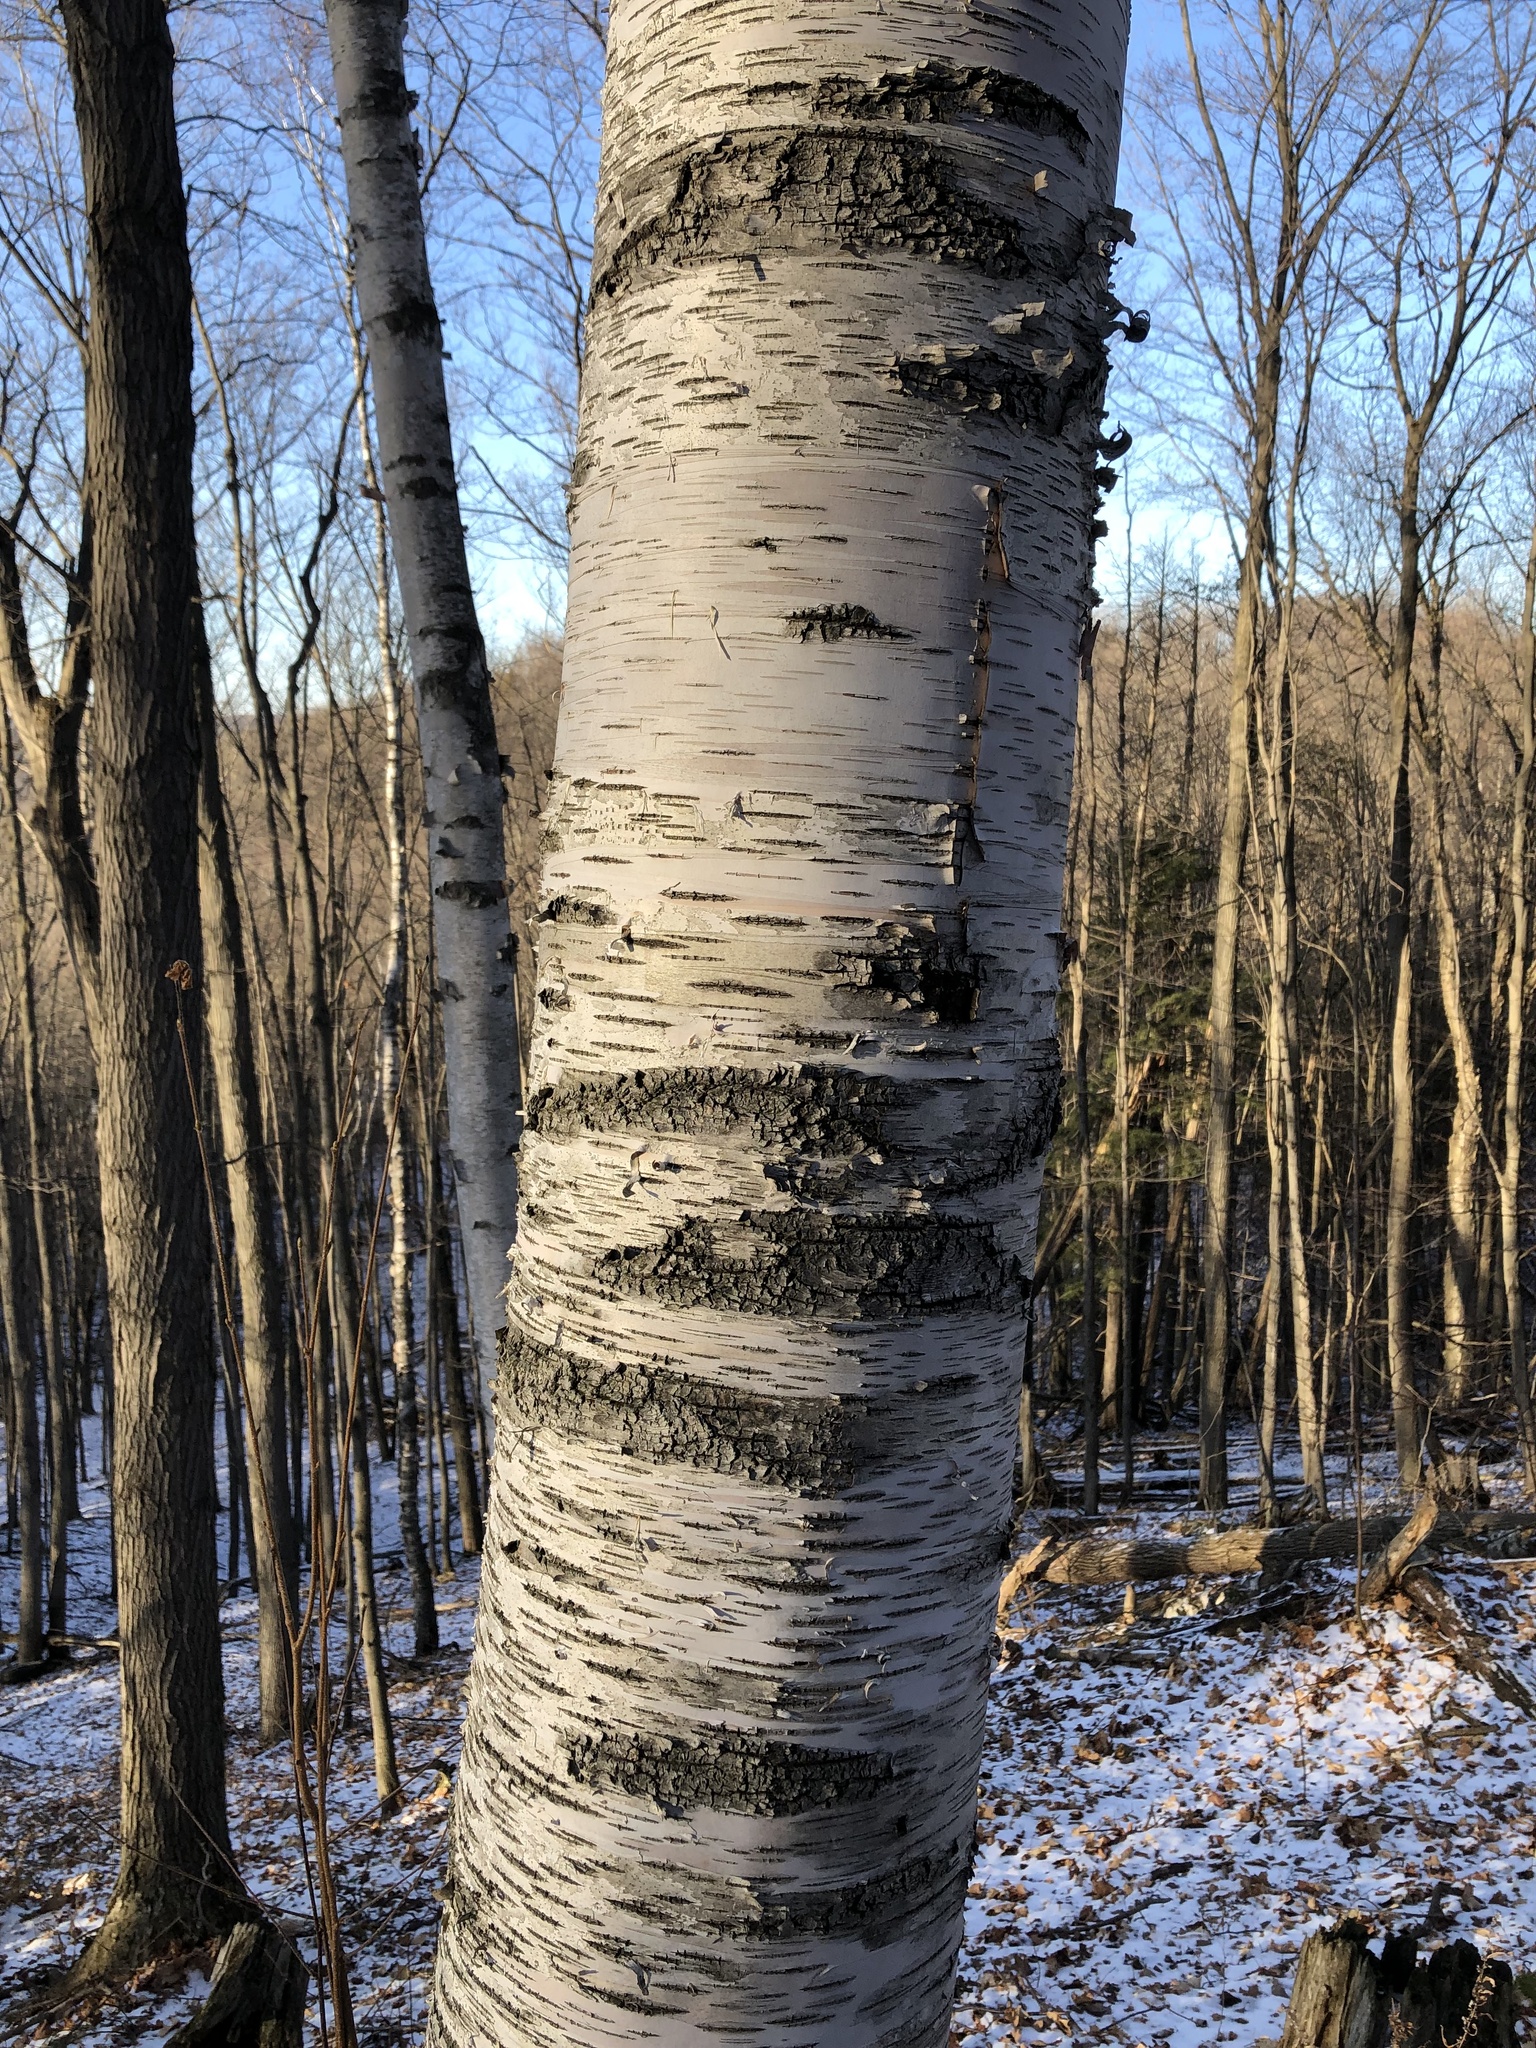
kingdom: Plantae
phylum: Tracheophyta
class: Magnoliopsida
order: Fagales
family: Betulaceae
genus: Betula
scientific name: Betula papyrifera
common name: Paper birch
